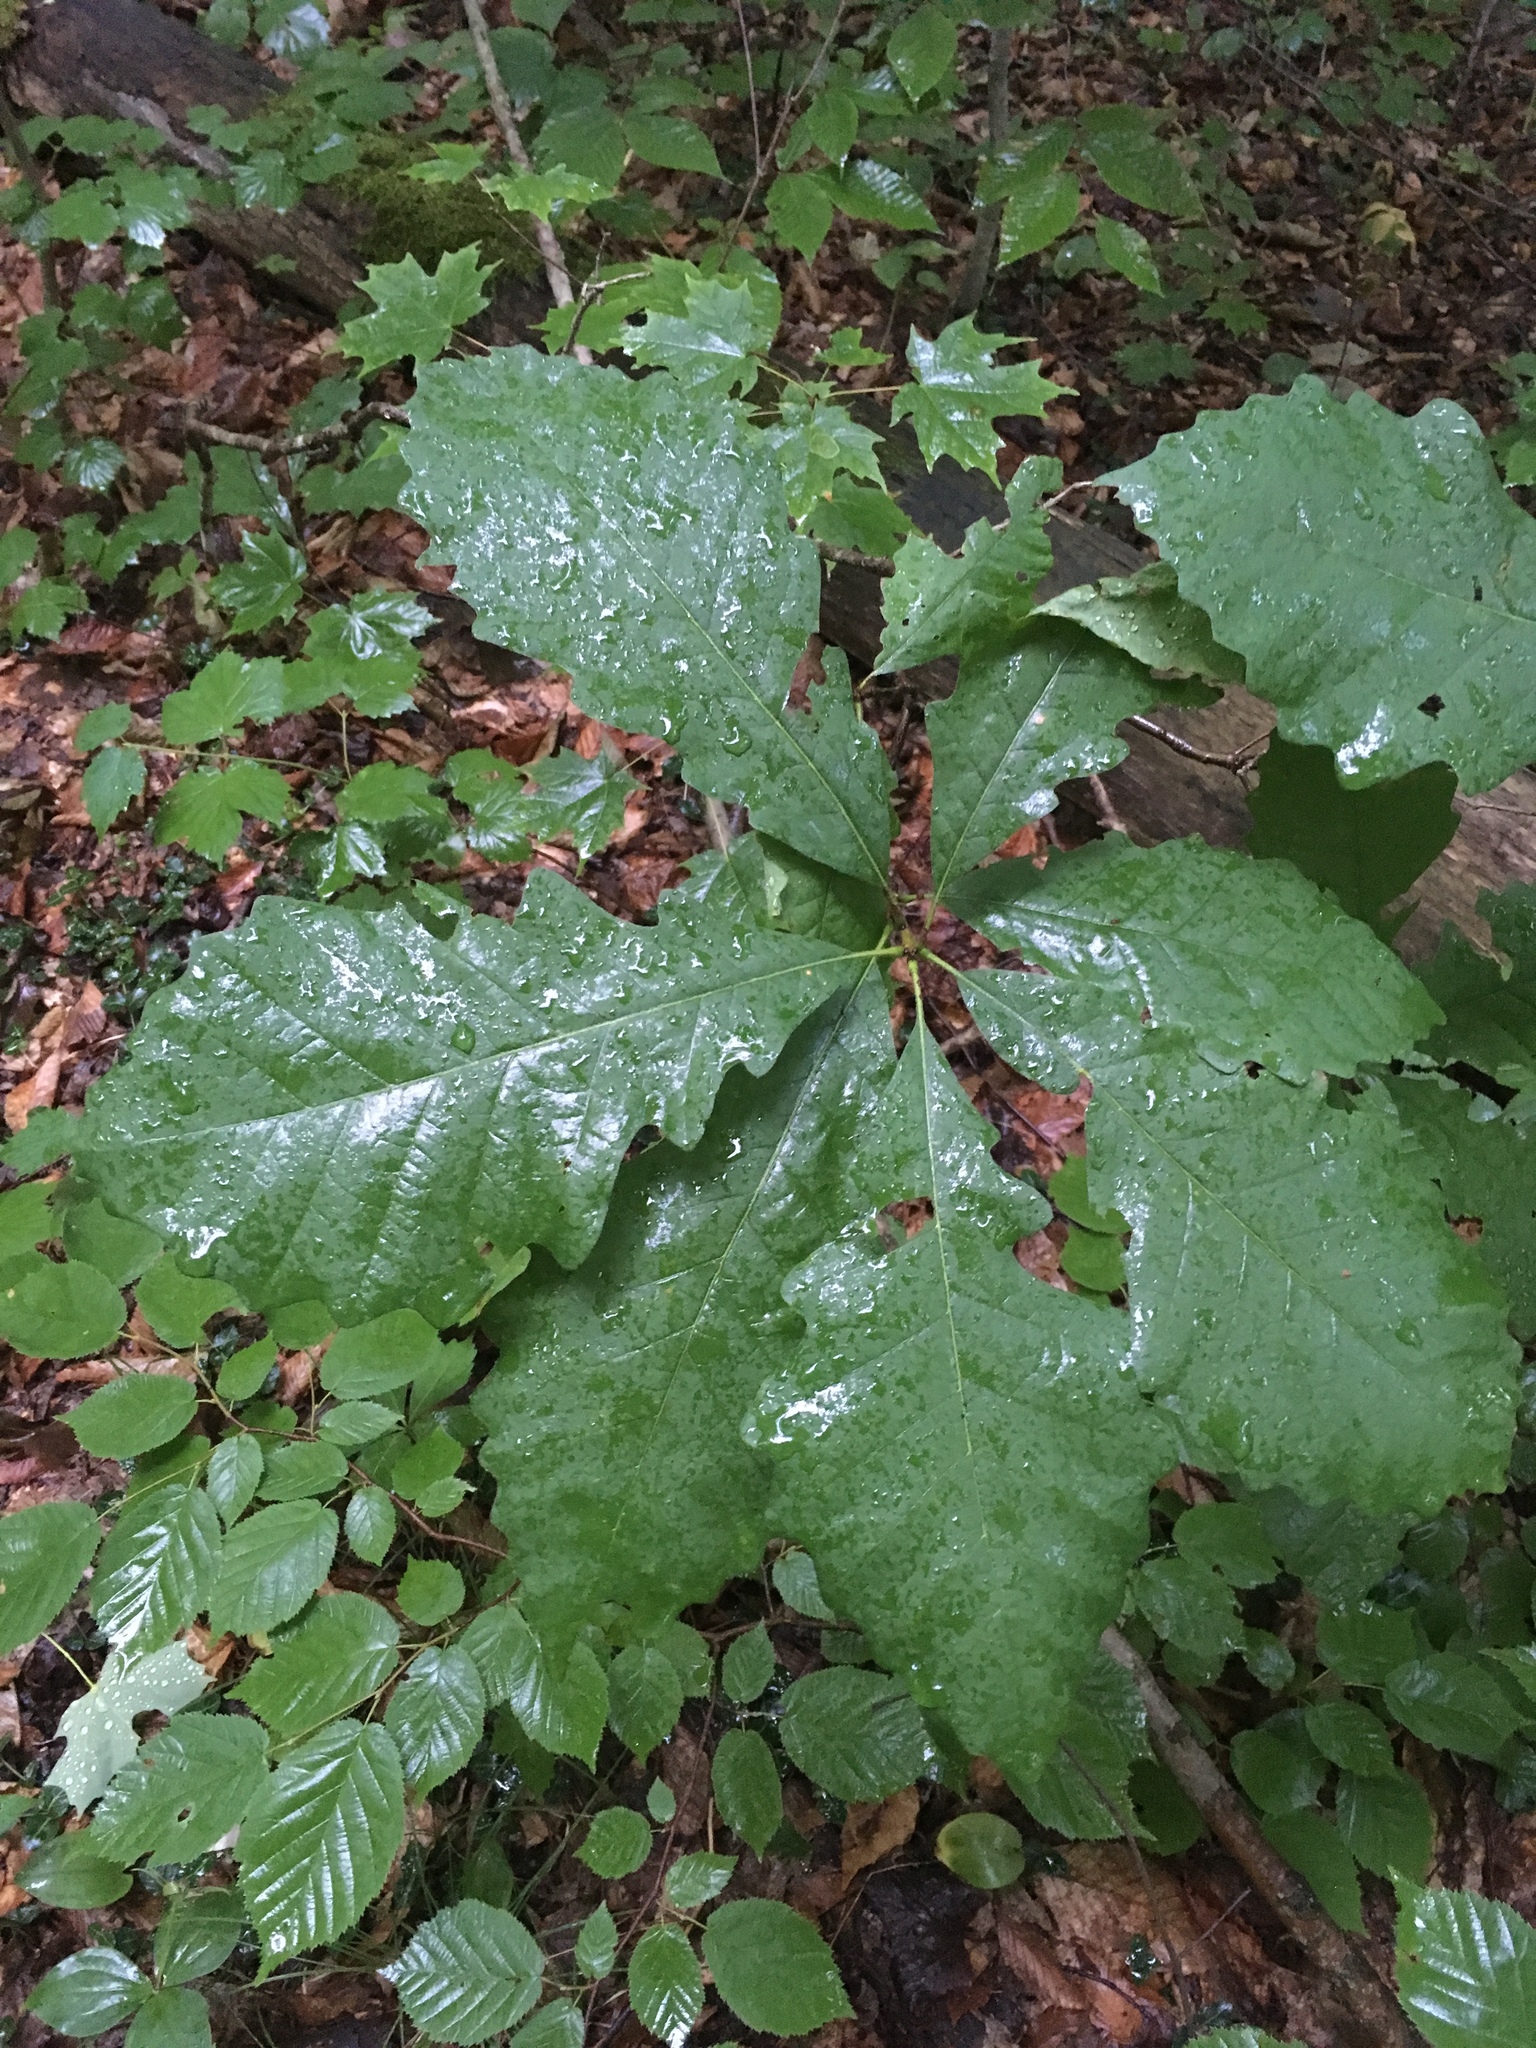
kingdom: Plantae
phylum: Tracheophyta
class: Magnoliopsida
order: Fagales
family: Fagaceae
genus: Quercus
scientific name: Quercus macrocarpa
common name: Bur oak
